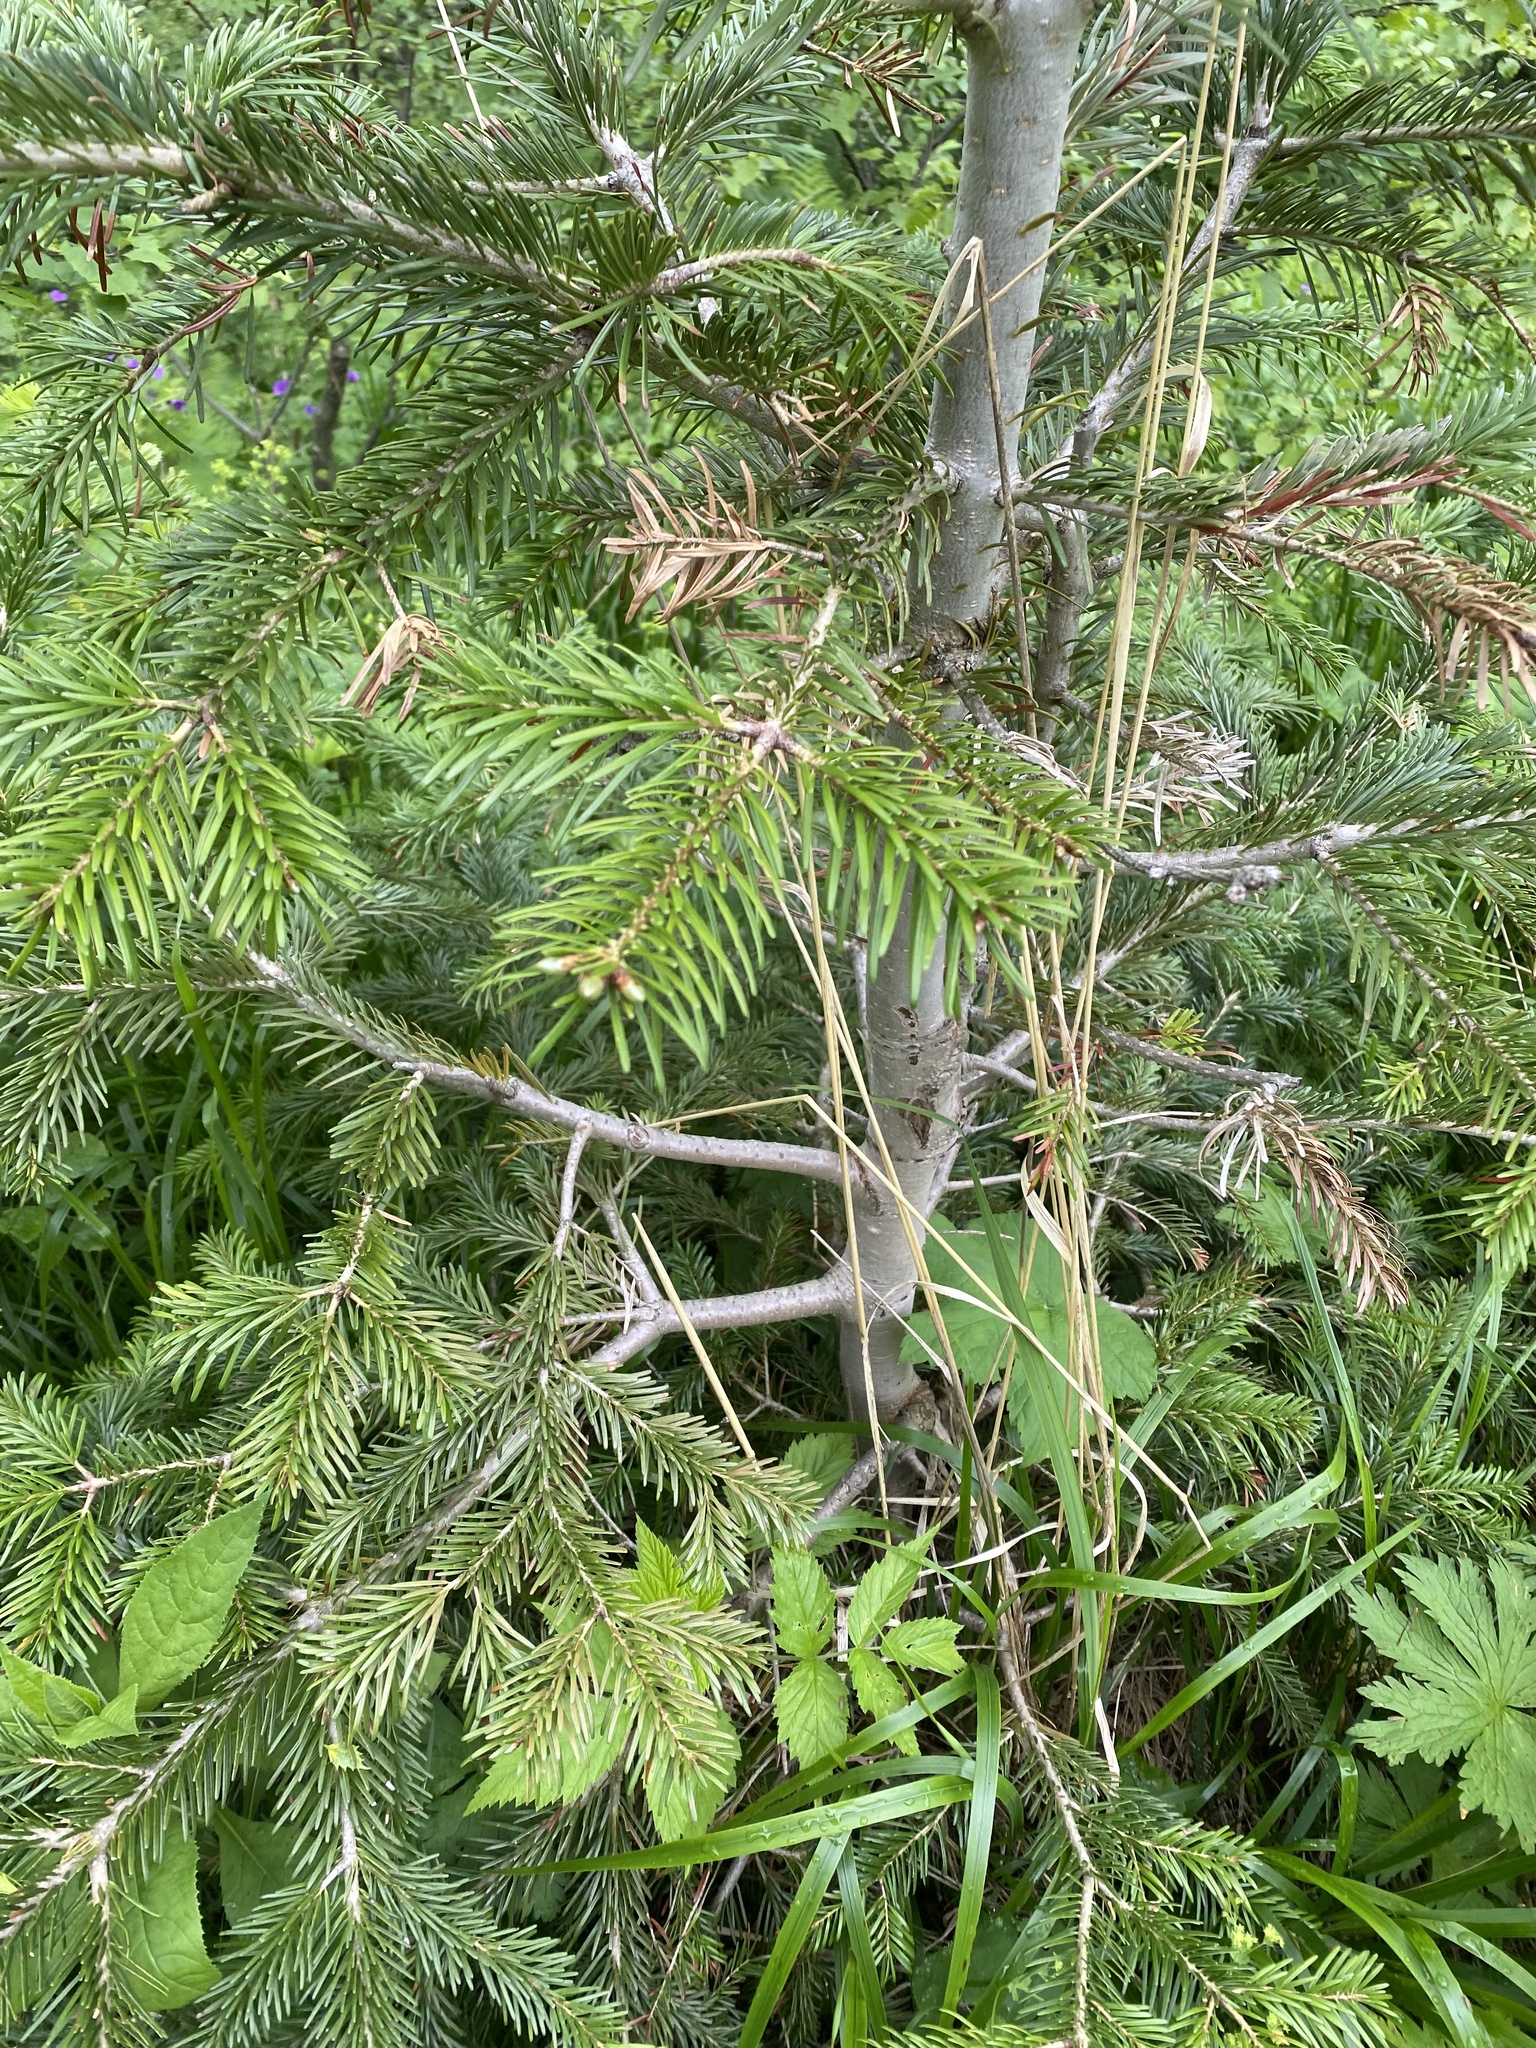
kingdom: Plantae
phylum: Tracheophyta
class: Pinopsida
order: Pinales
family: Pinaceae
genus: Abies
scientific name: Abies nordmanniana
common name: Caucasian fir
